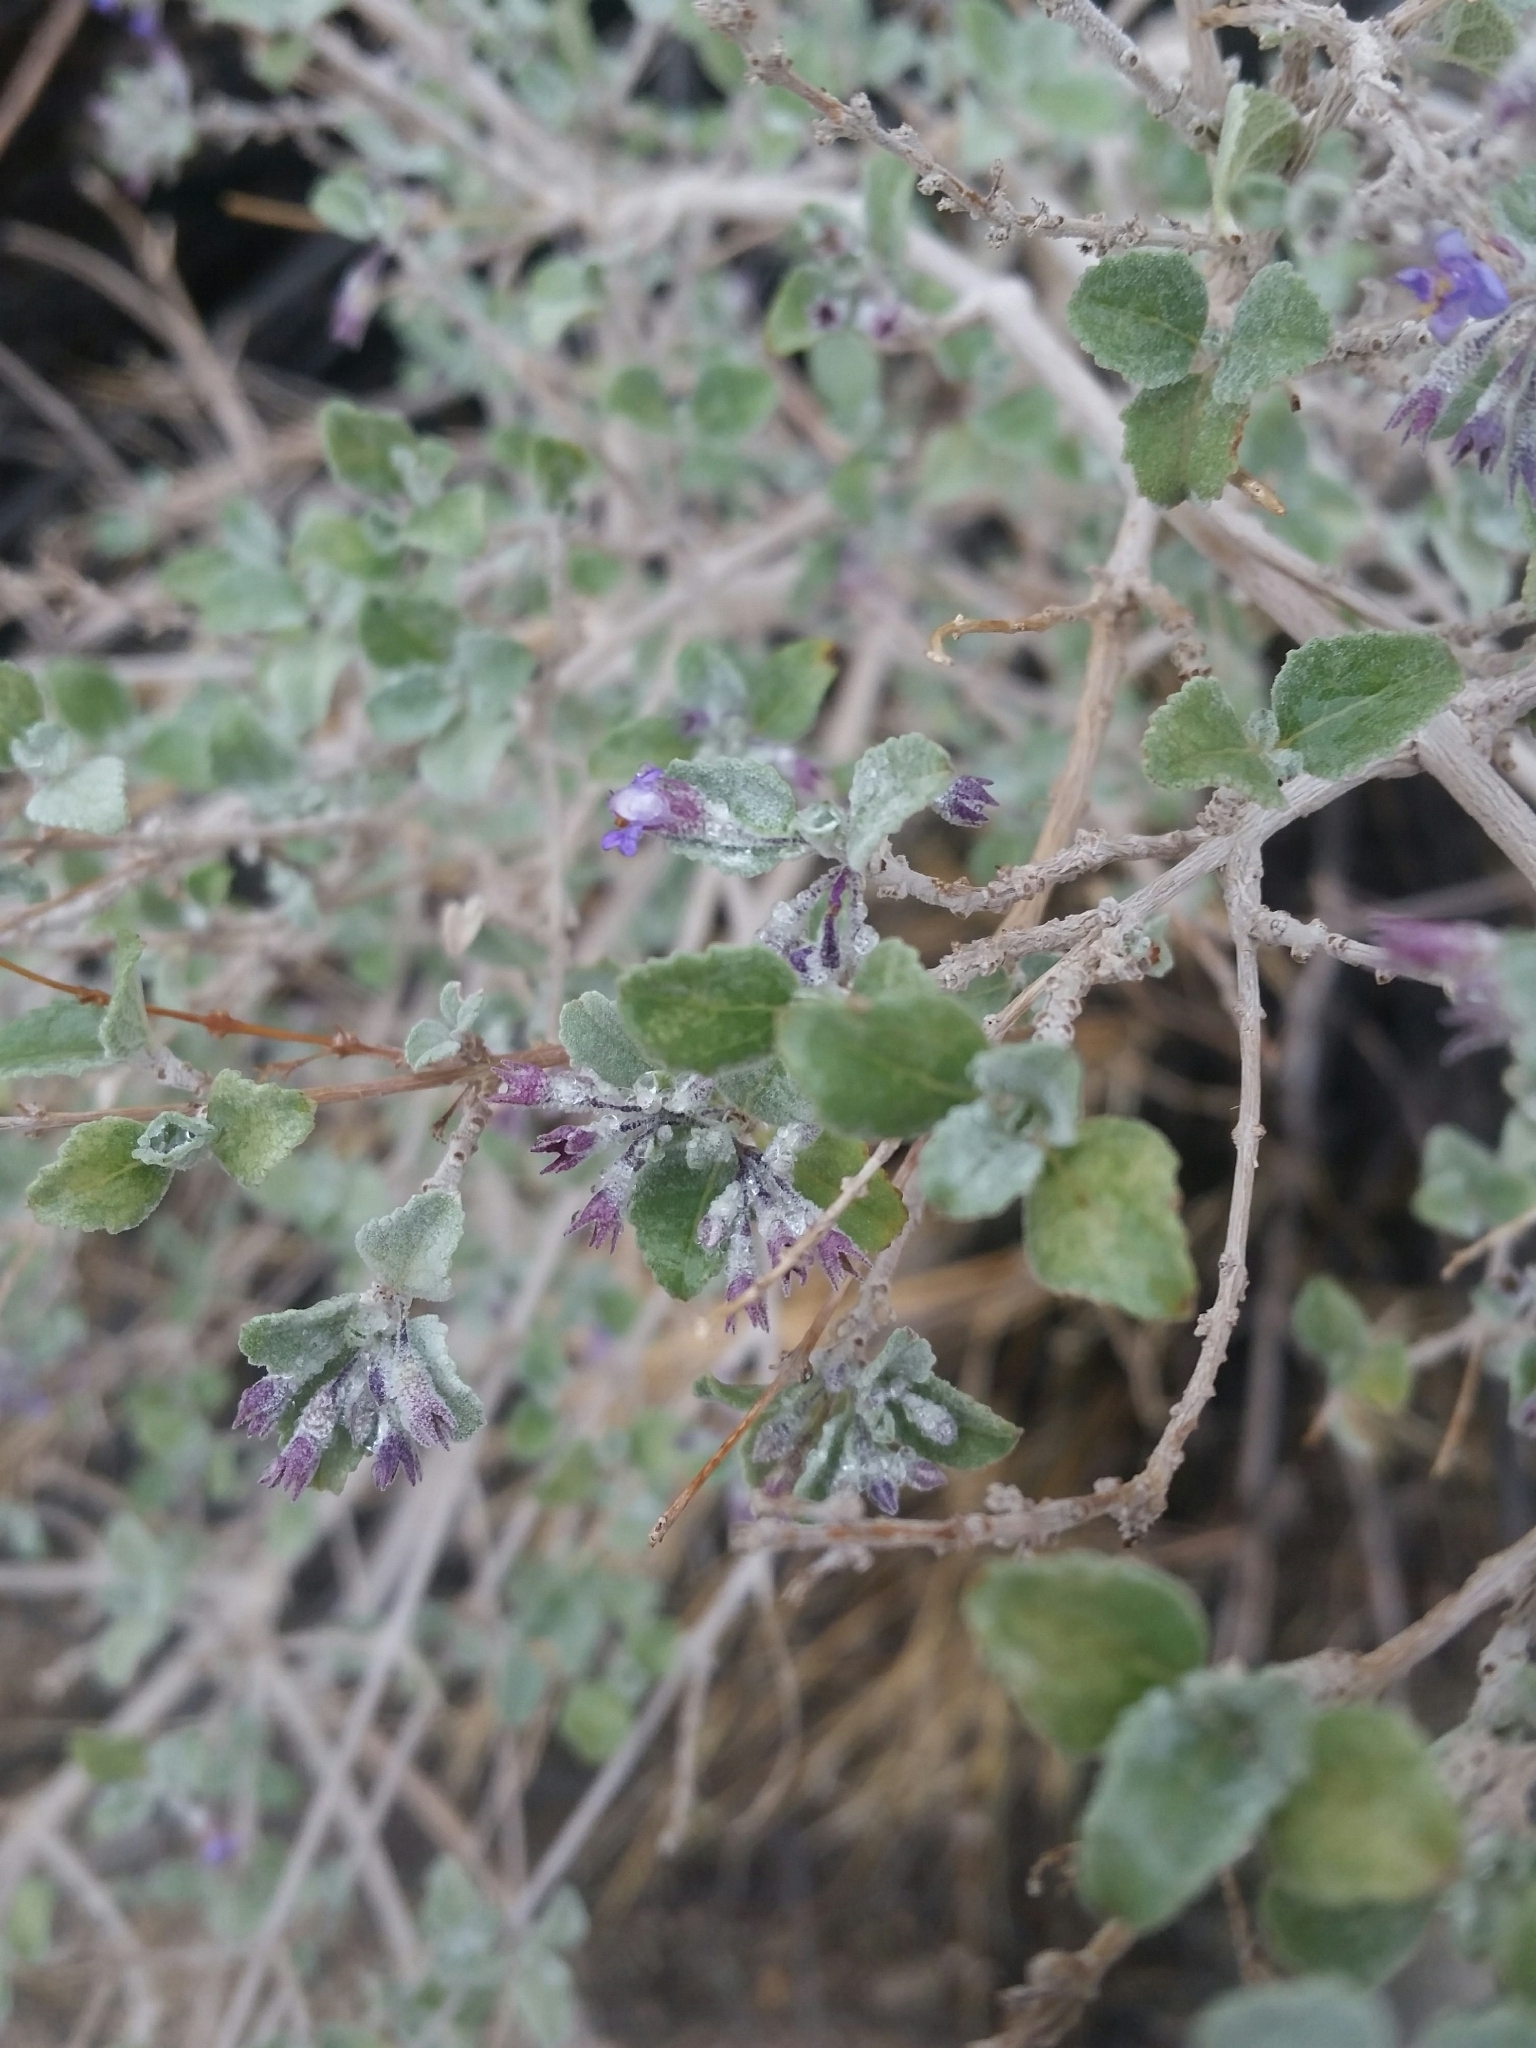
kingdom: Plantae
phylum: Tracheophyta
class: Magnoliopsida
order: Lamiales
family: Lamiaceae
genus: Condea
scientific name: Condea emoryi
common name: Chia
